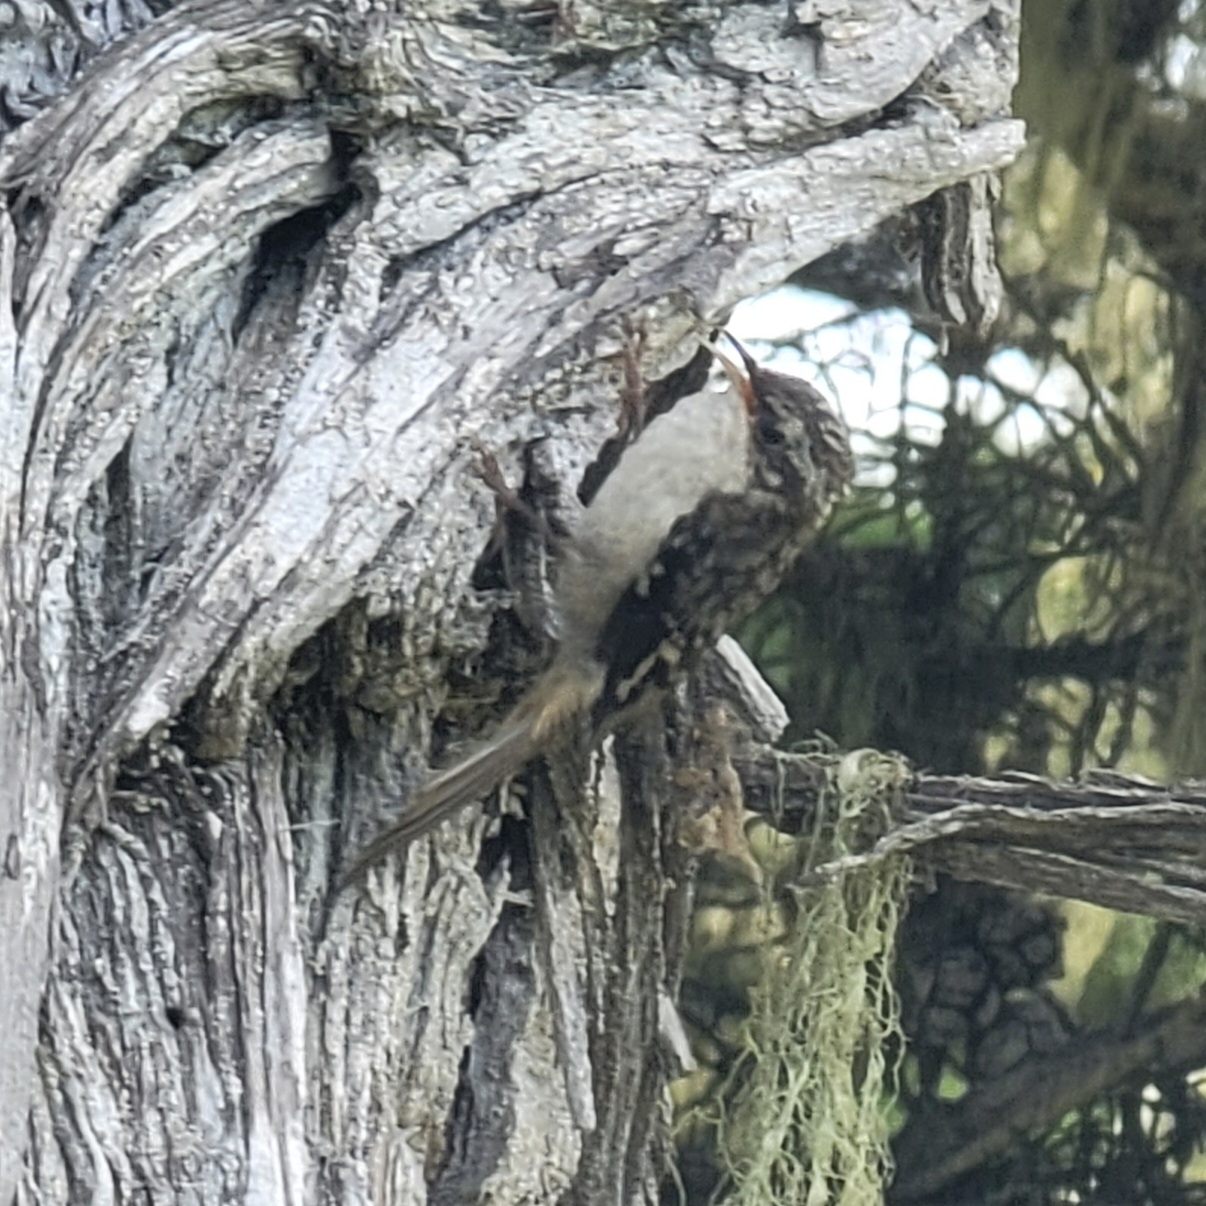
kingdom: Animalia
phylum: Chordata
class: Aves
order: Passeriformes
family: Certhiidae
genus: Certhia
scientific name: Certhia americana
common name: Brown creeper
